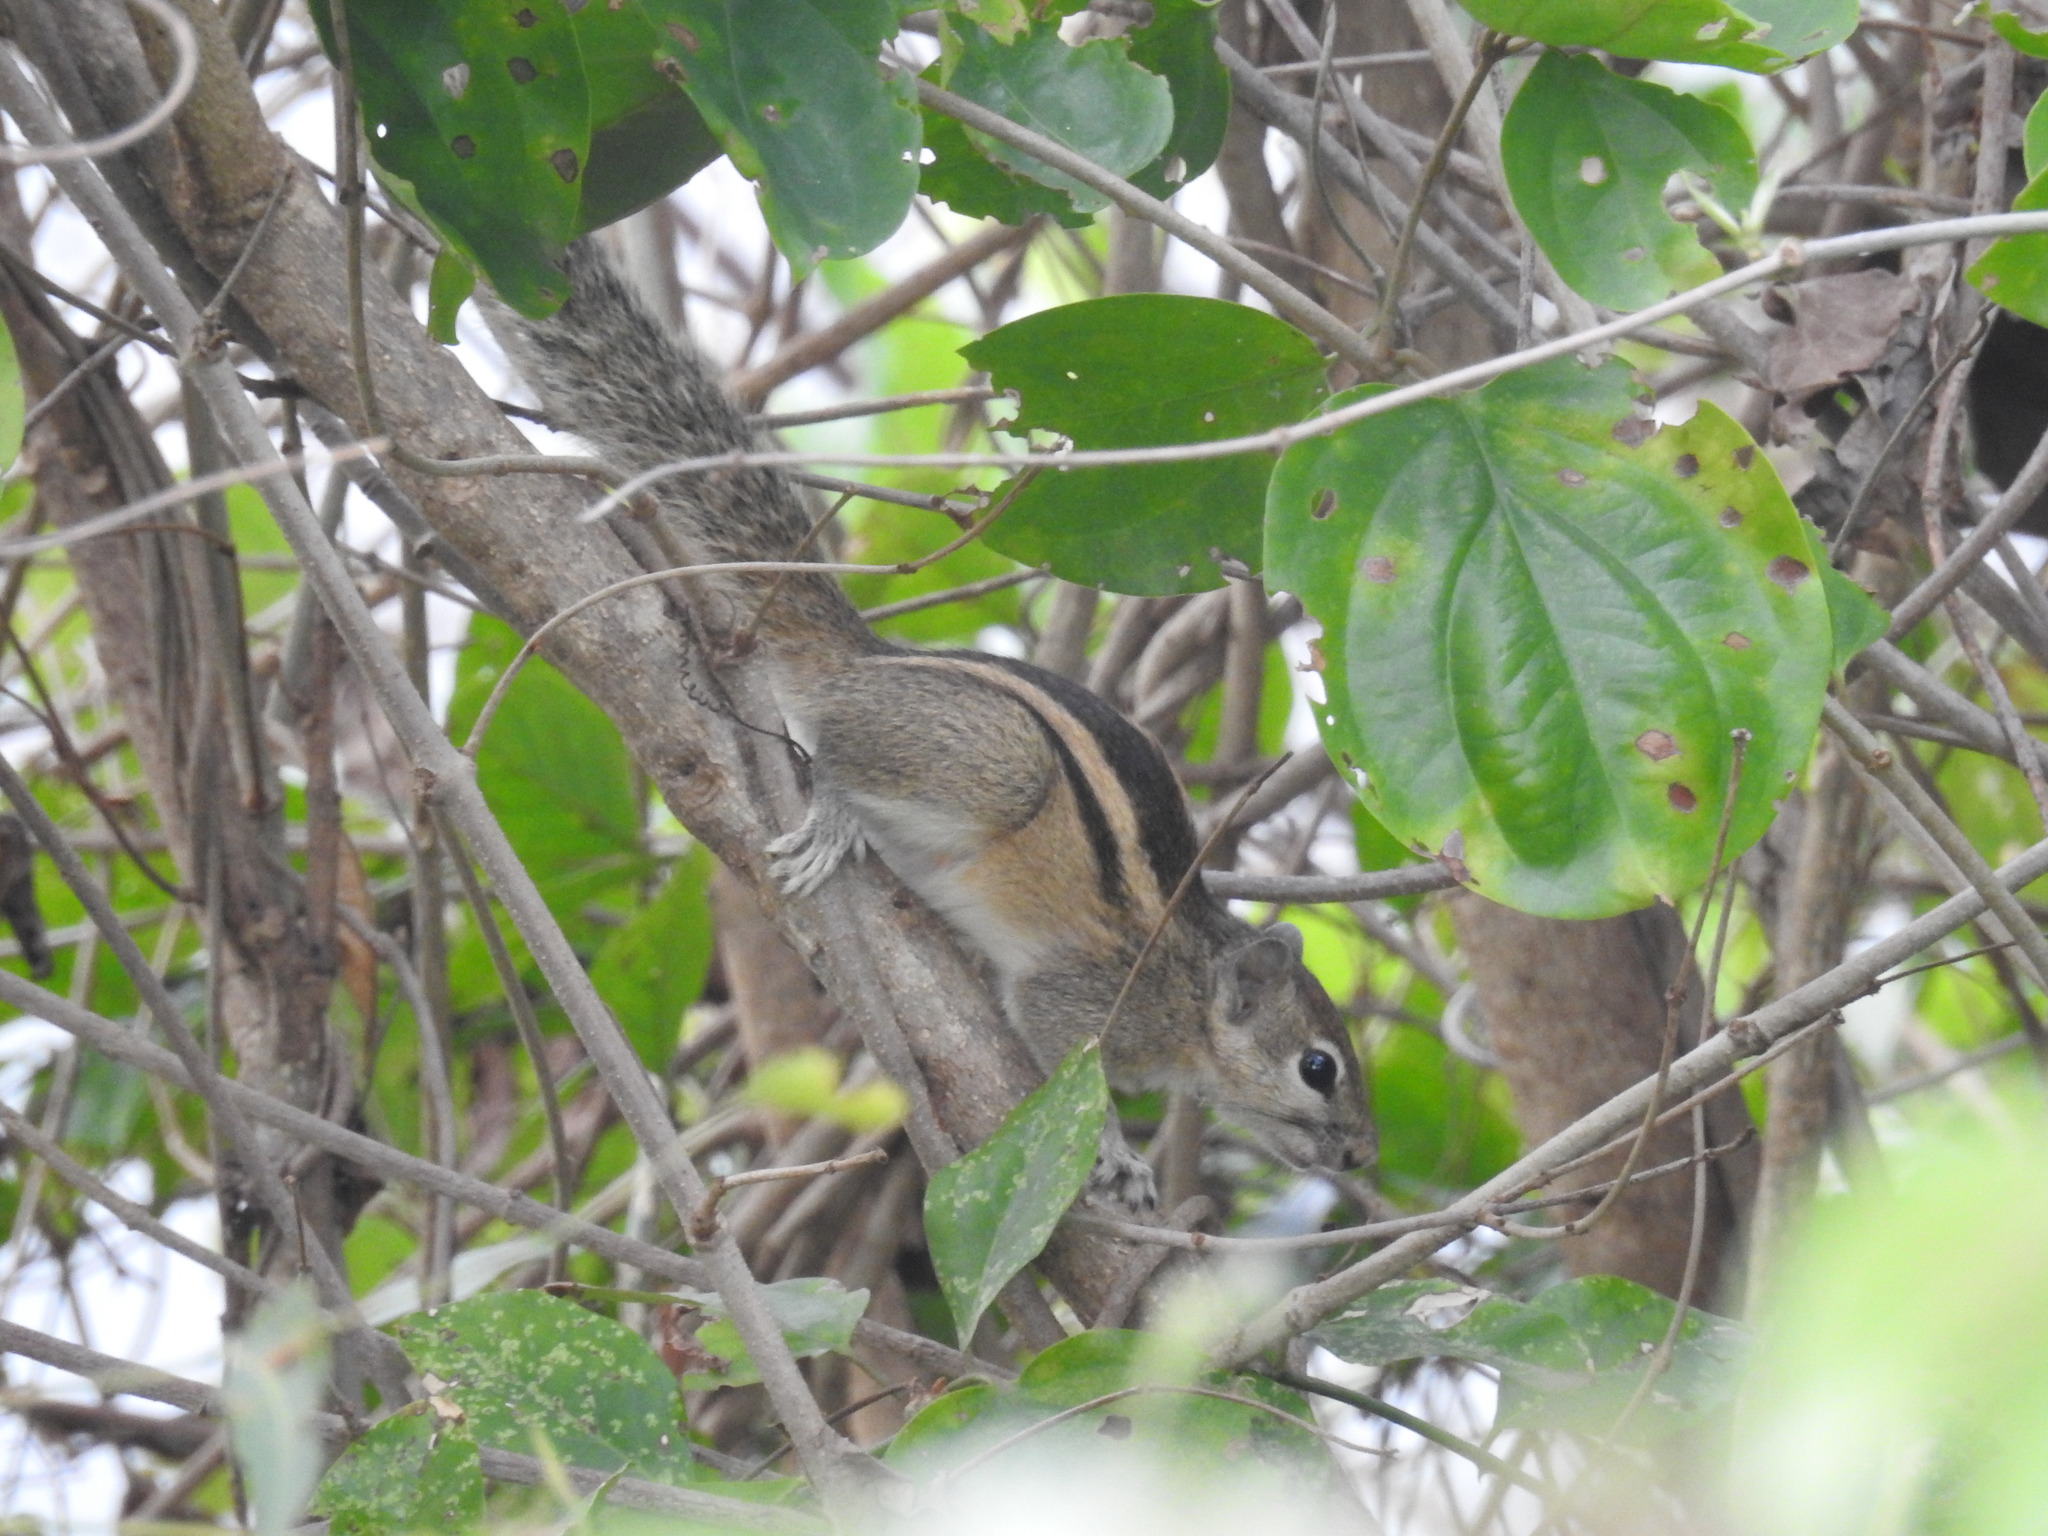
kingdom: Animalia
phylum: Chordata
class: Mammalia
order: Rodentia
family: Sciuridae
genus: Funambulus
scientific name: Funambulus palmarum
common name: Indian palm squirrel
